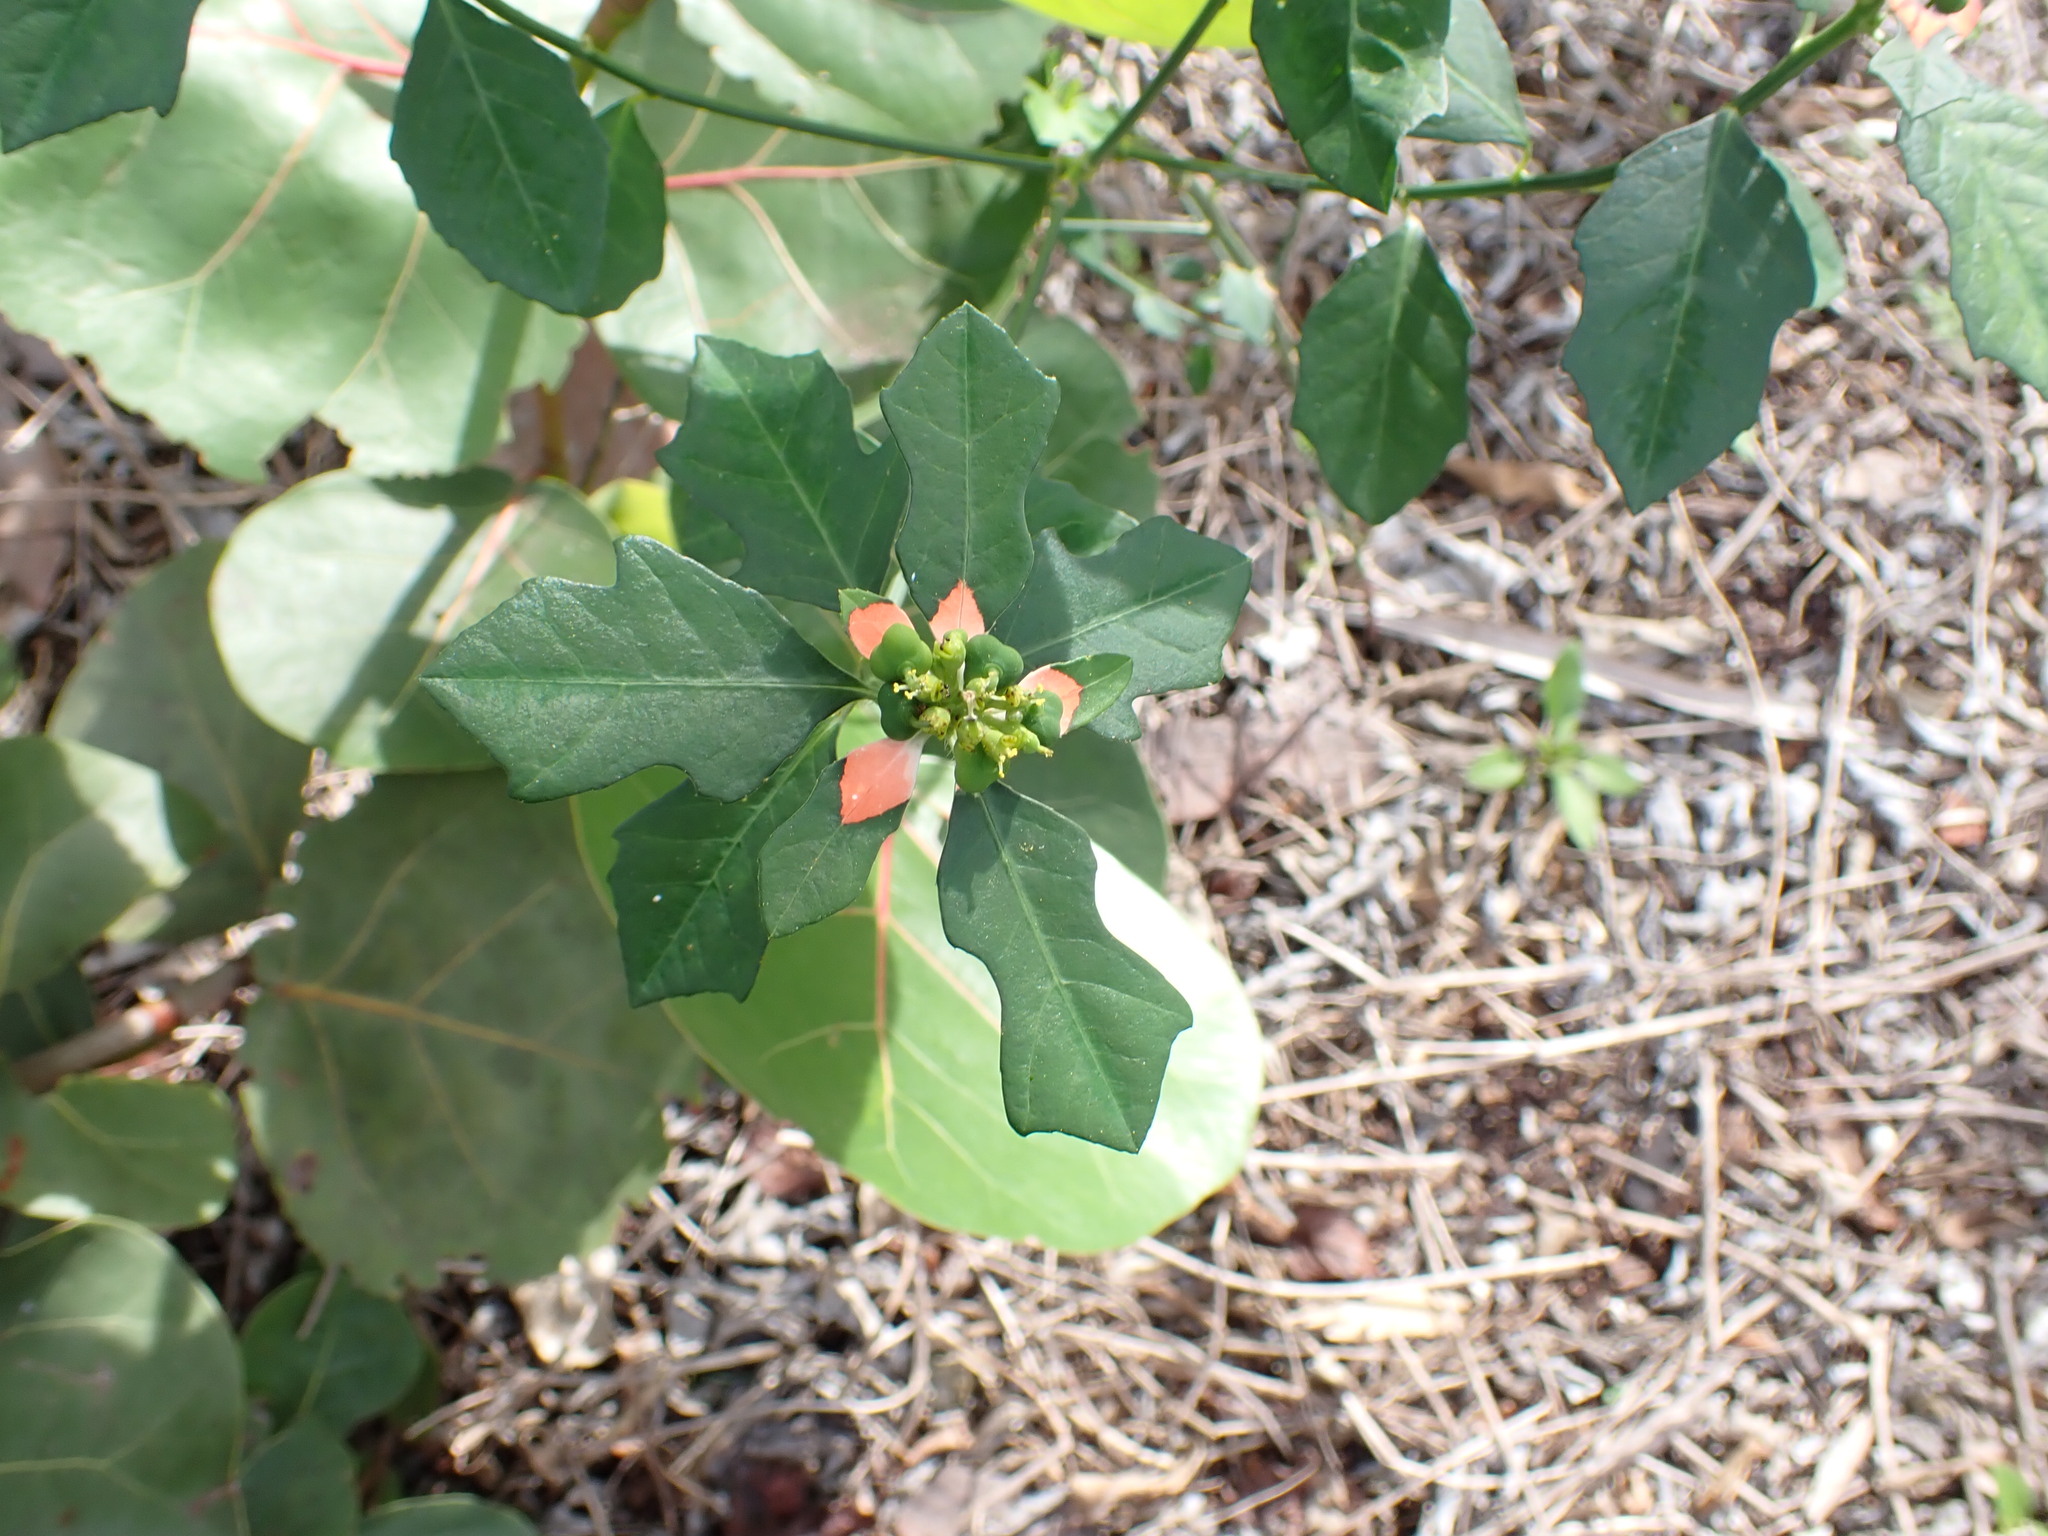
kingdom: Plantae
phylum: Tracheophyta
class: Magnoliopsida
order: Malpighiales
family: Euphorbiaceae
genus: Euphorbia
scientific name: Euphorbia heterophylla
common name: Mexican fireplant
